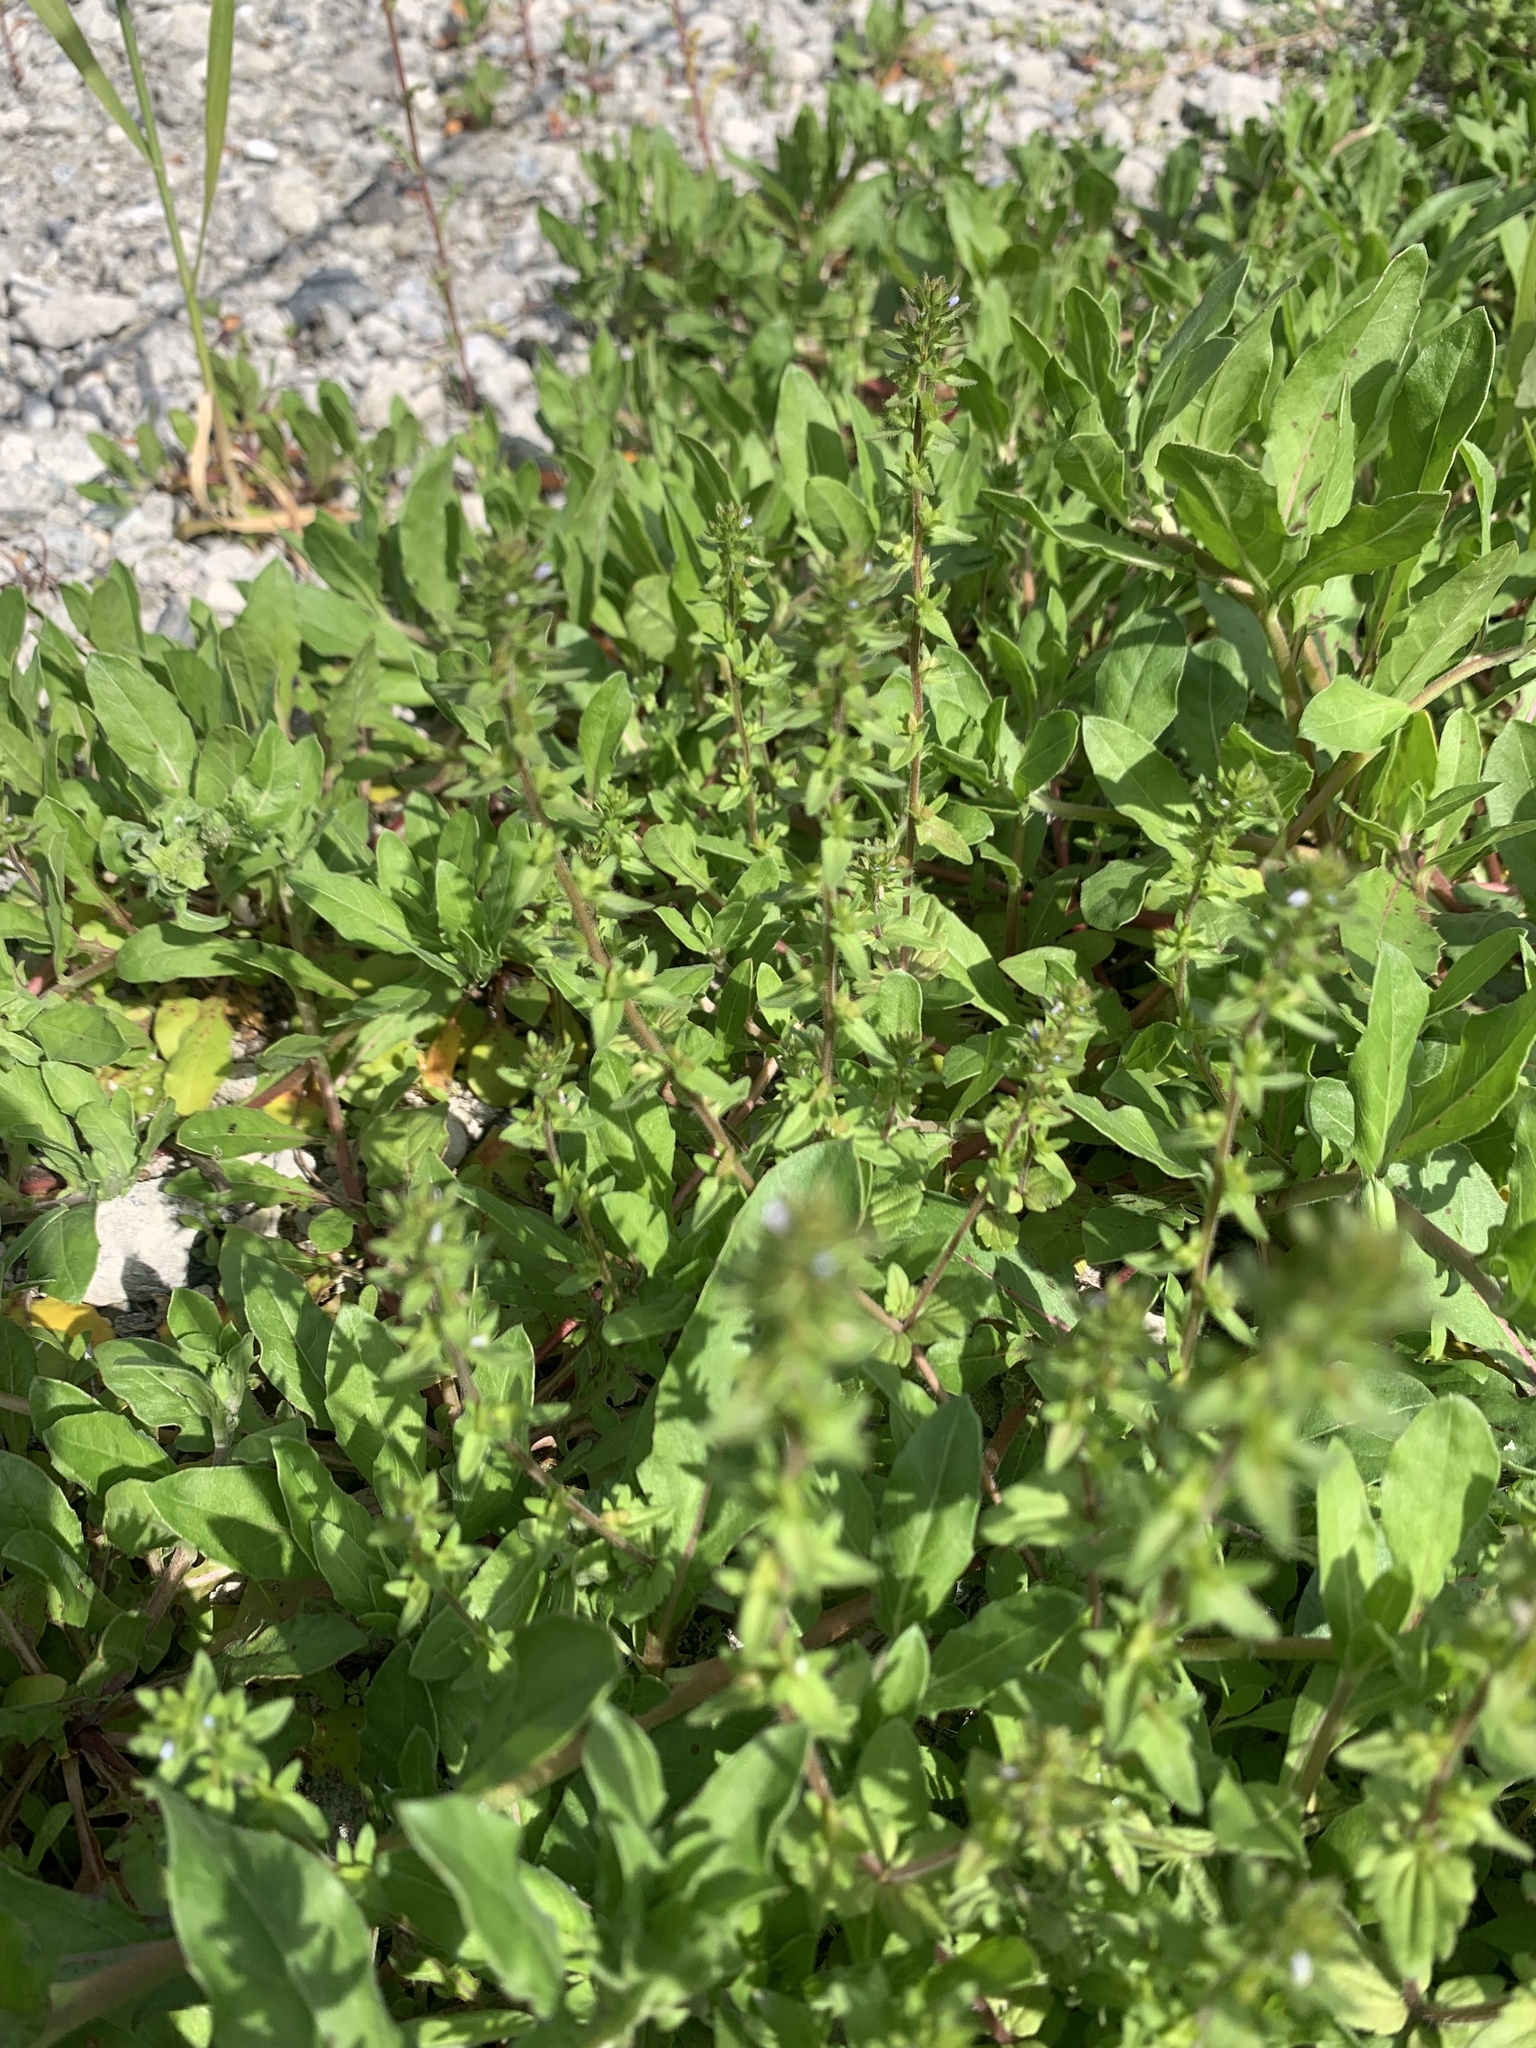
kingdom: Plantae
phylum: Tracheophyta
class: Magnoliopsida
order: Lamiales
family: Plantaginaceae
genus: Veronica
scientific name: Veronica arvensis
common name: Corn speedwell
